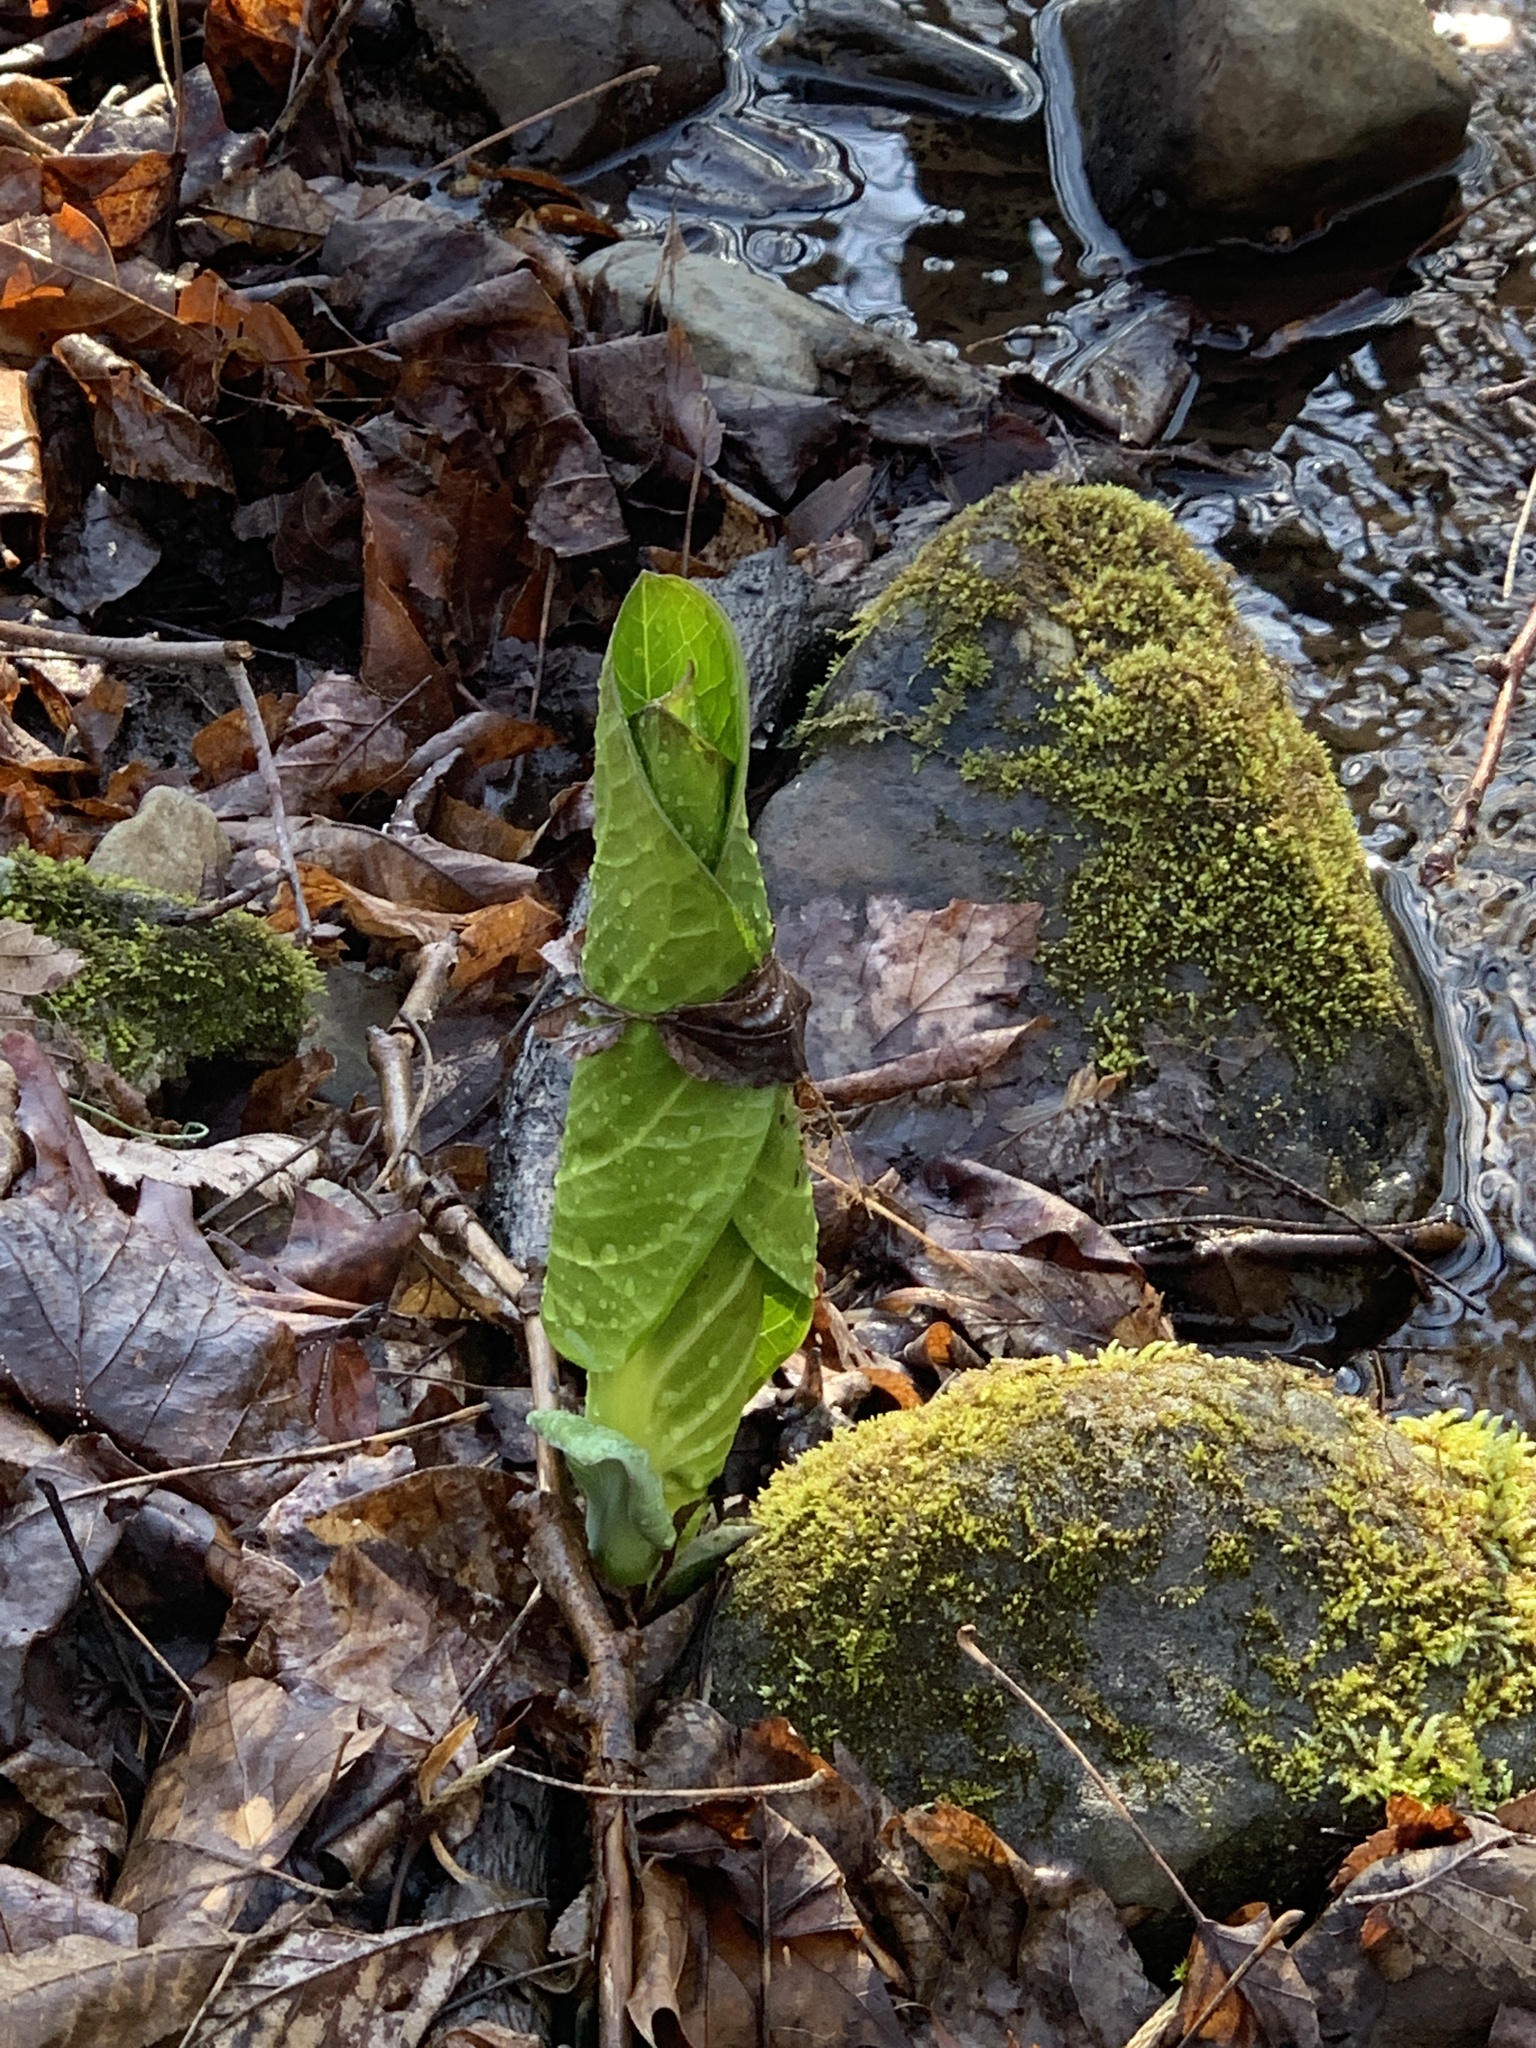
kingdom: Plantae
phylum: Tracheophyta
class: Liliopsida
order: Alismatales
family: Araceae
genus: Symplocarpus
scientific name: Symplocarpus foetidus
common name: Eastern skunk cabbage
